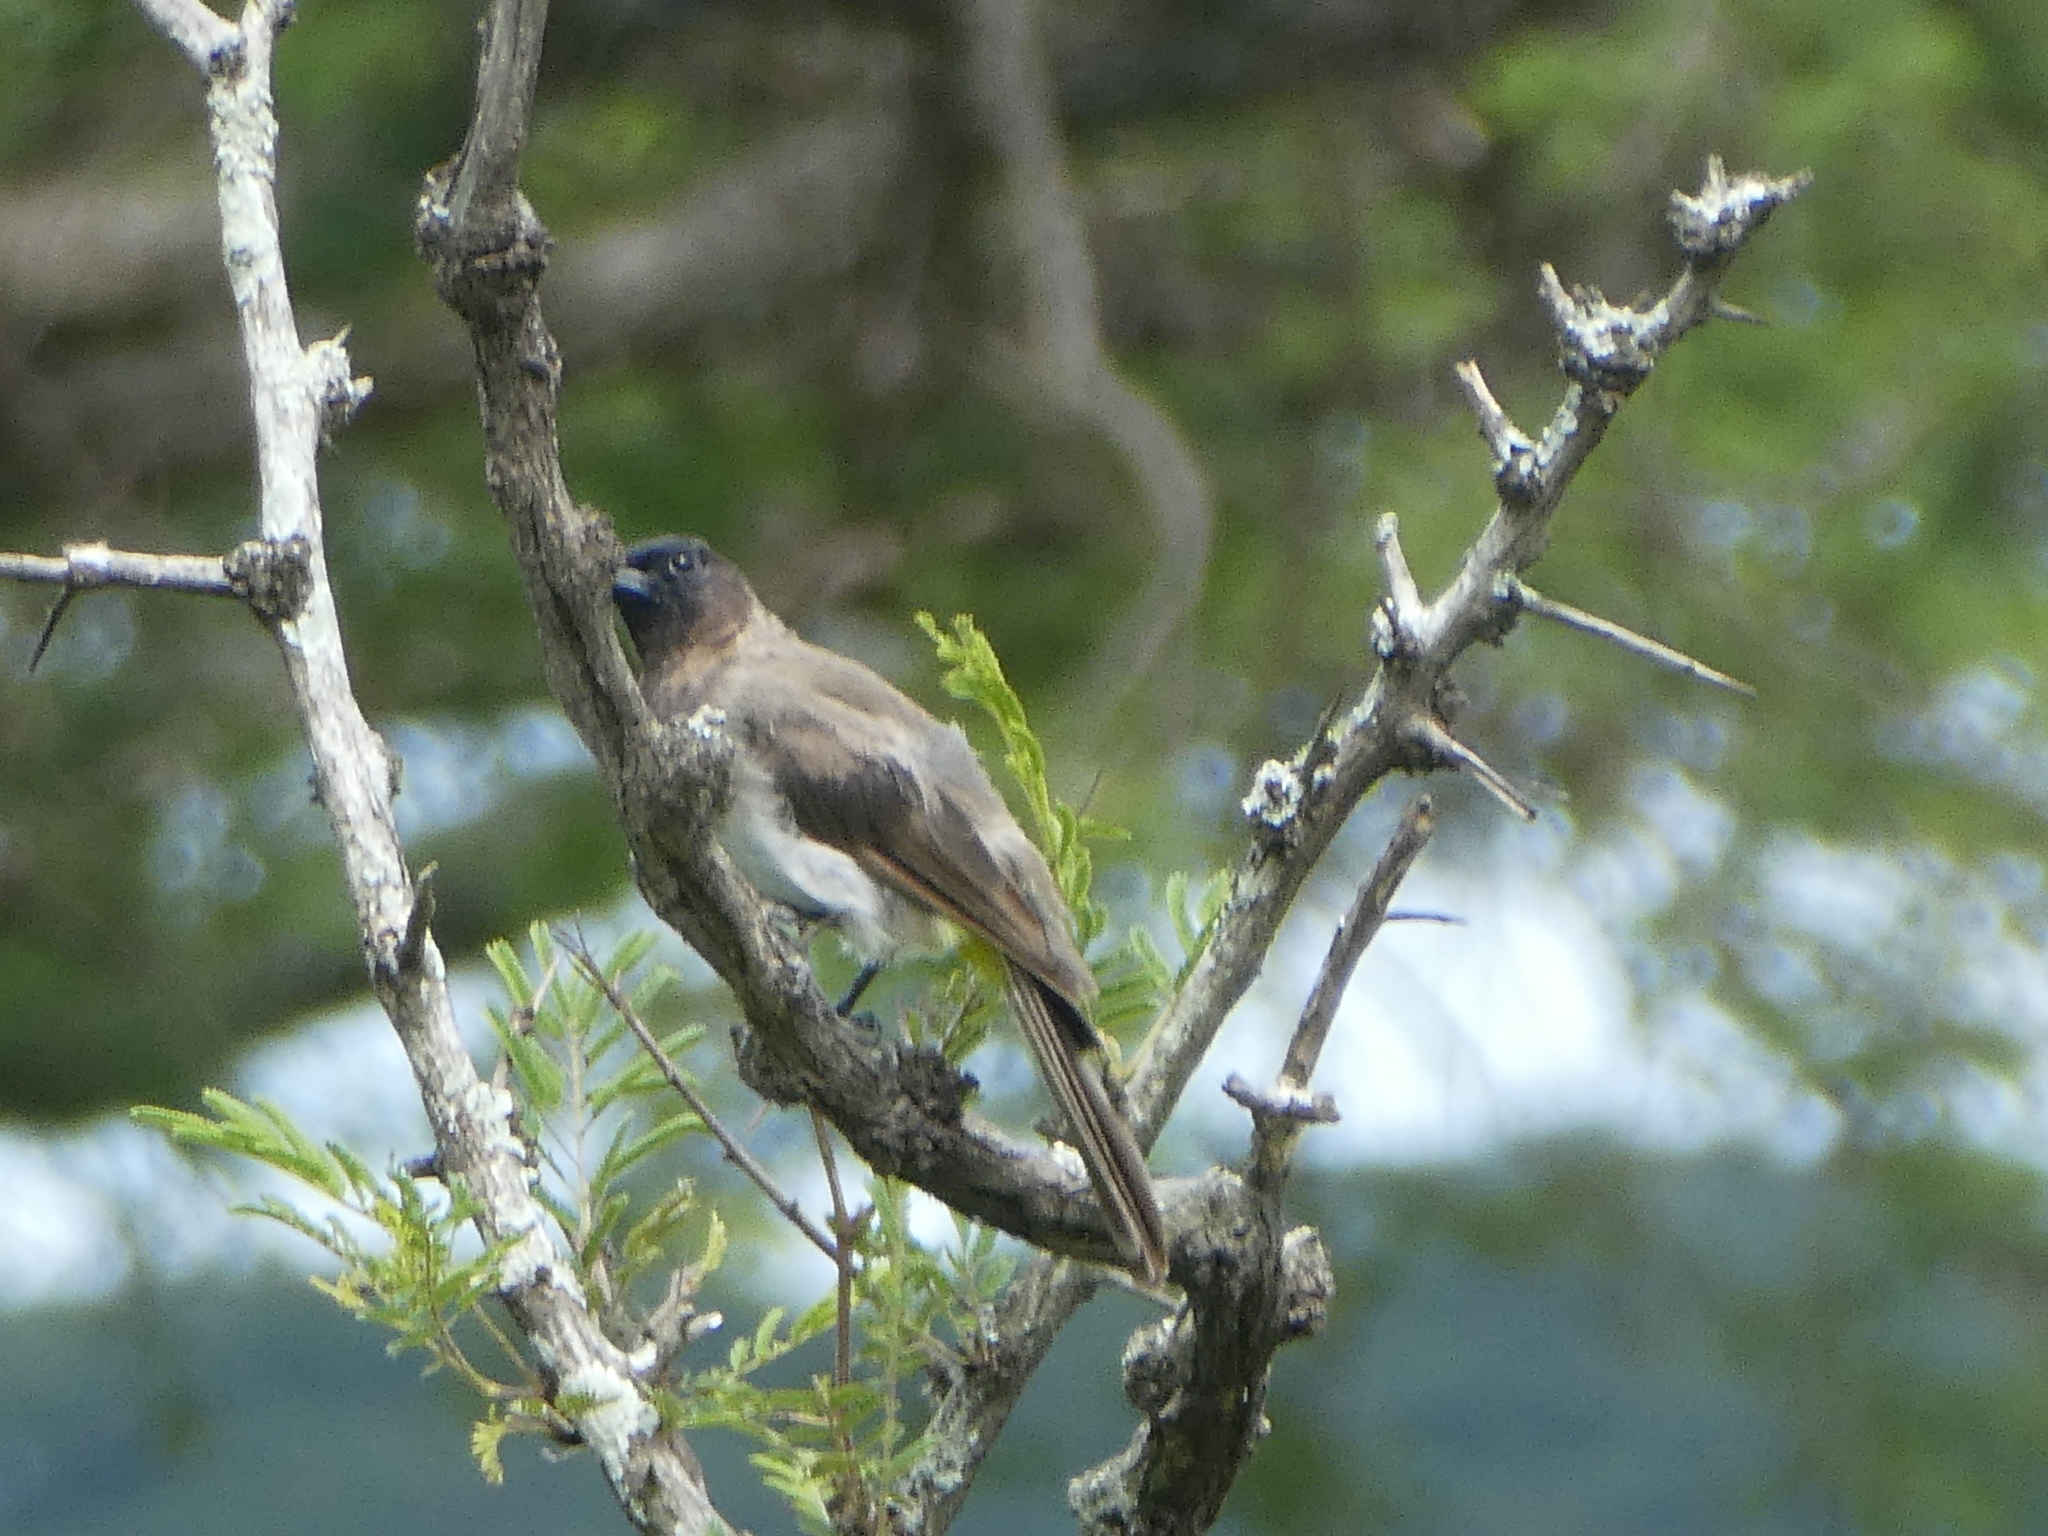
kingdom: Animalia
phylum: Chordata
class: Aves
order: Passeriformes
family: Pycnonotidae
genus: Pycnonotus
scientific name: Pycnonotus barbatus
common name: Common bulbul
